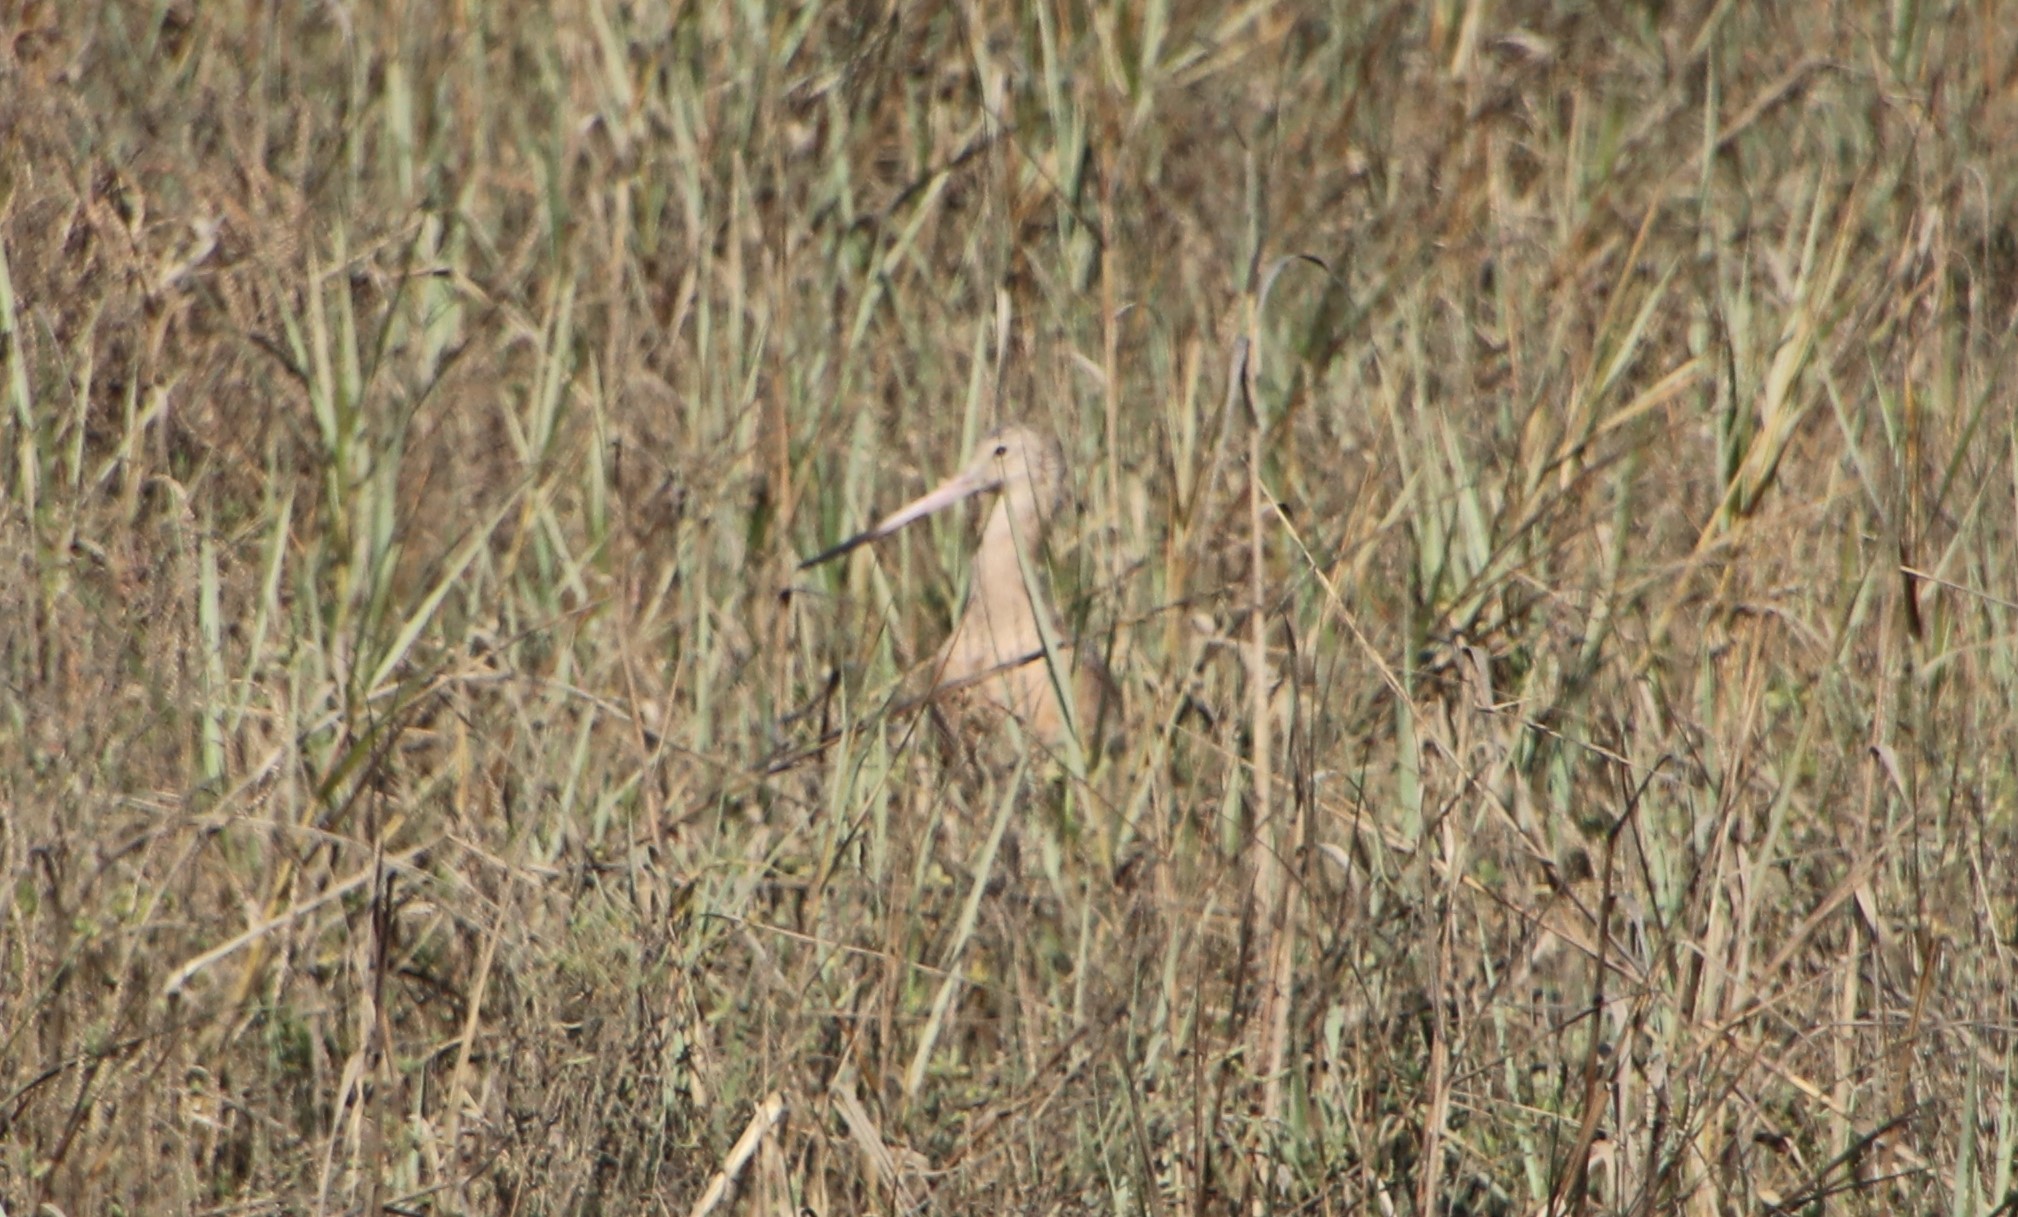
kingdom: Animalia
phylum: Chordata
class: Aves
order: Charadriiformes
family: Scolopacidae
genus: Limosa
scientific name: Limosa fedoa
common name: Marbled godwit
